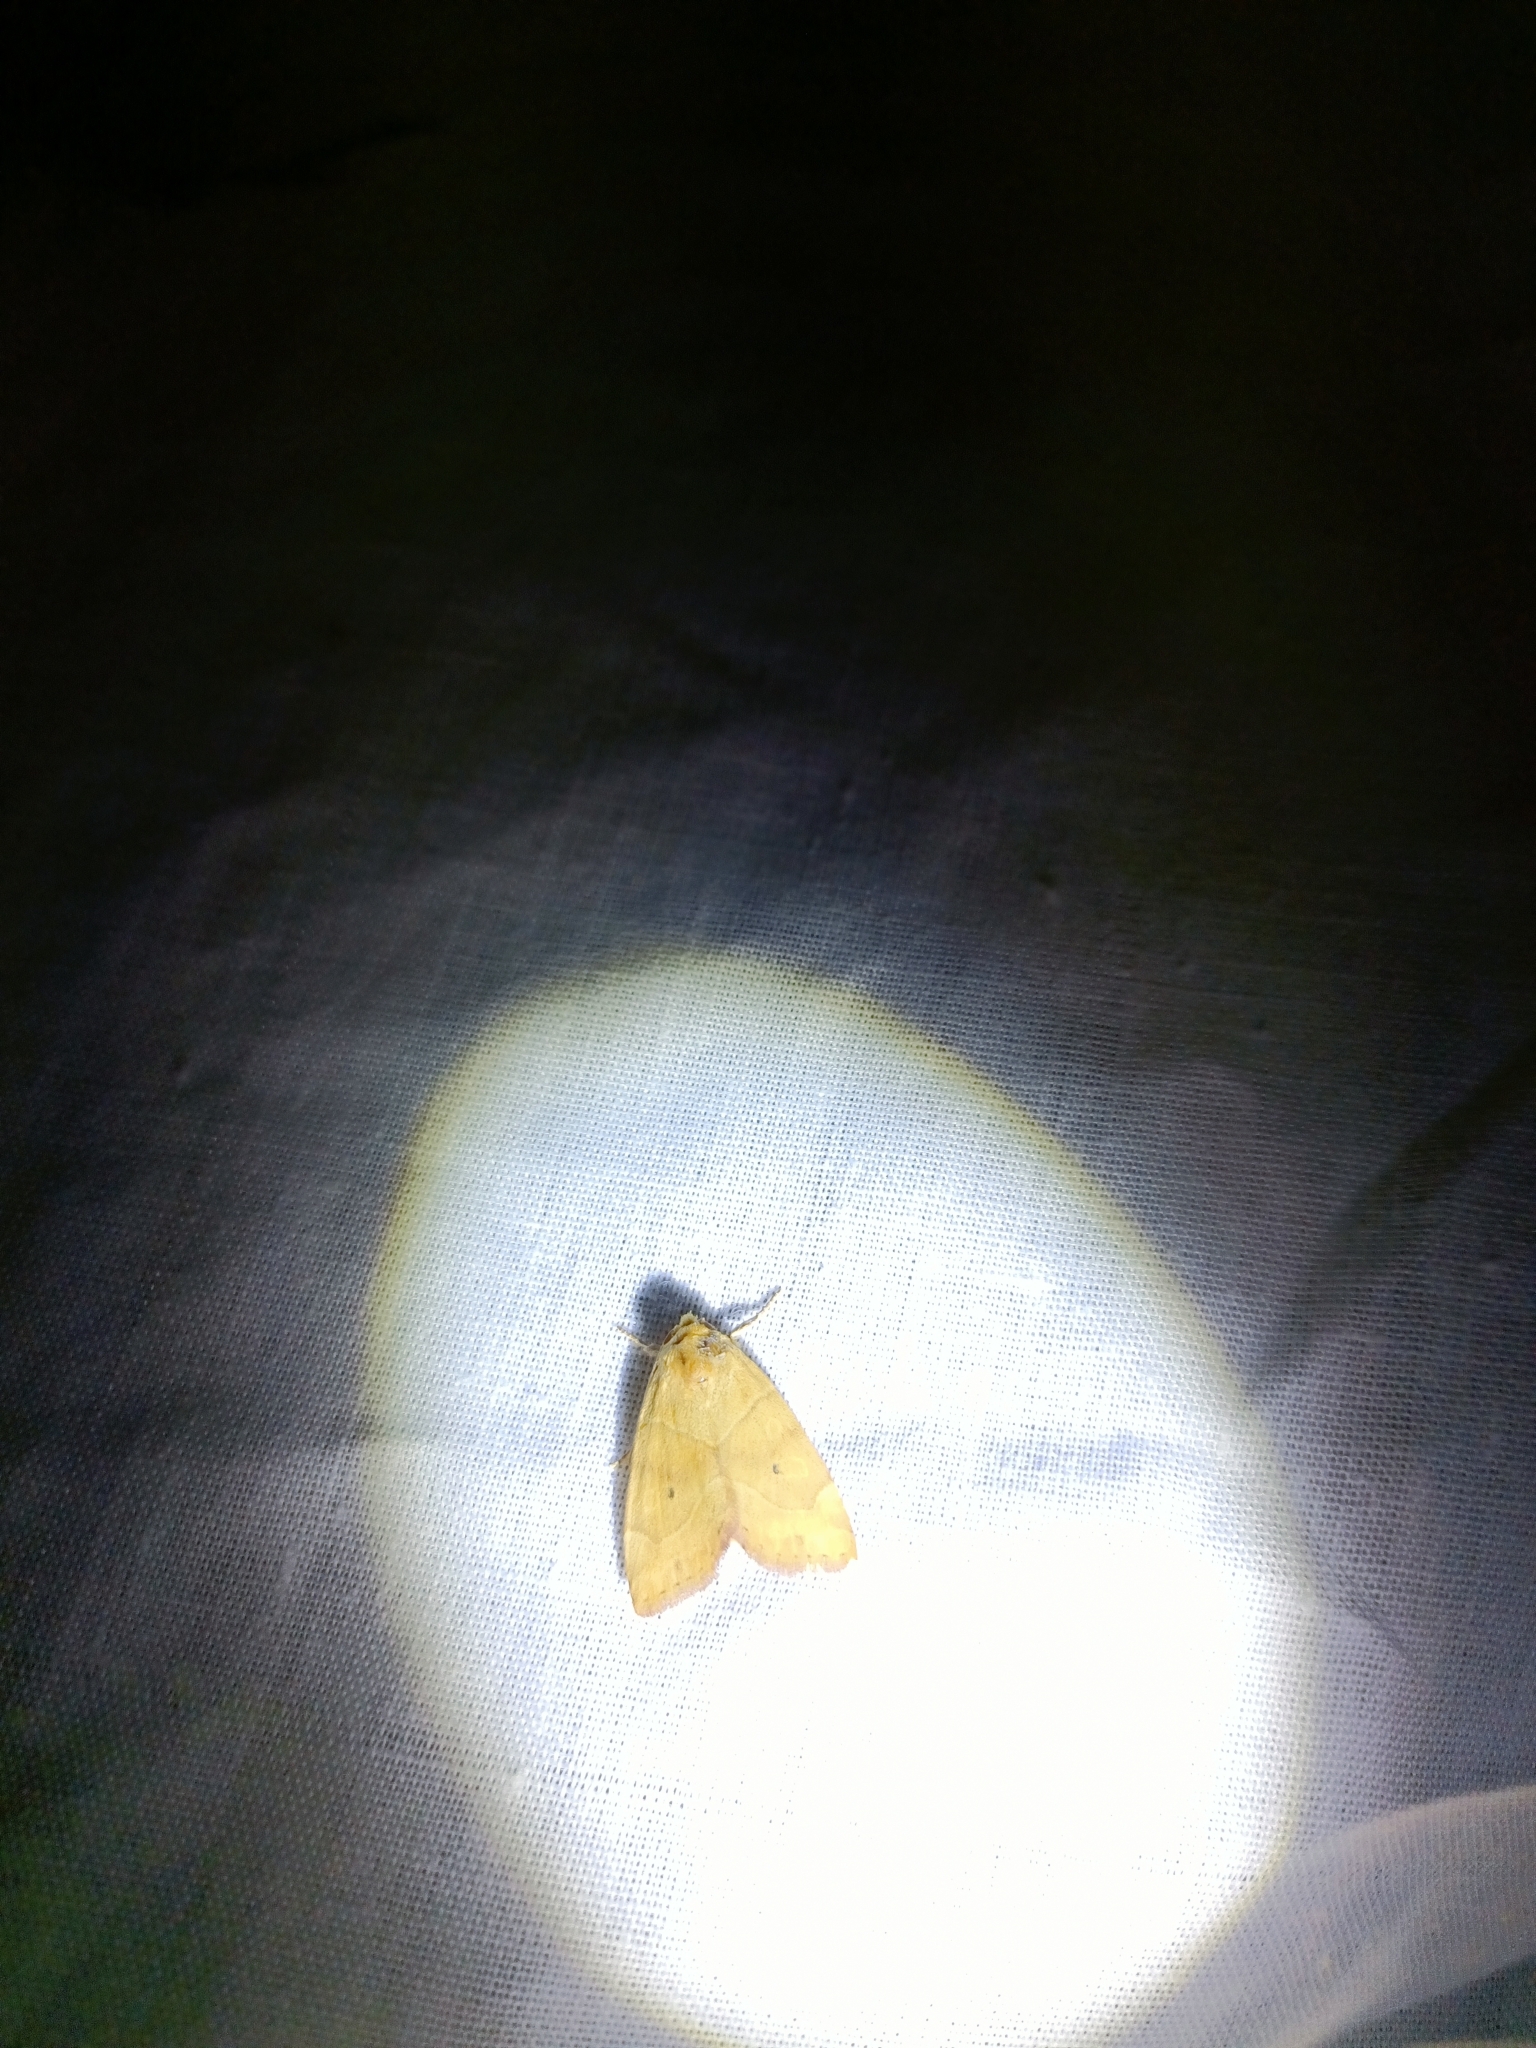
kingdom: Animalia
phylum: Arthropoda
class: Insecta
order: Lepidoptera
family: Noctuidae
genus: Cosmia
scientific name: Cosmia trapezina
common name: Dun-bar
